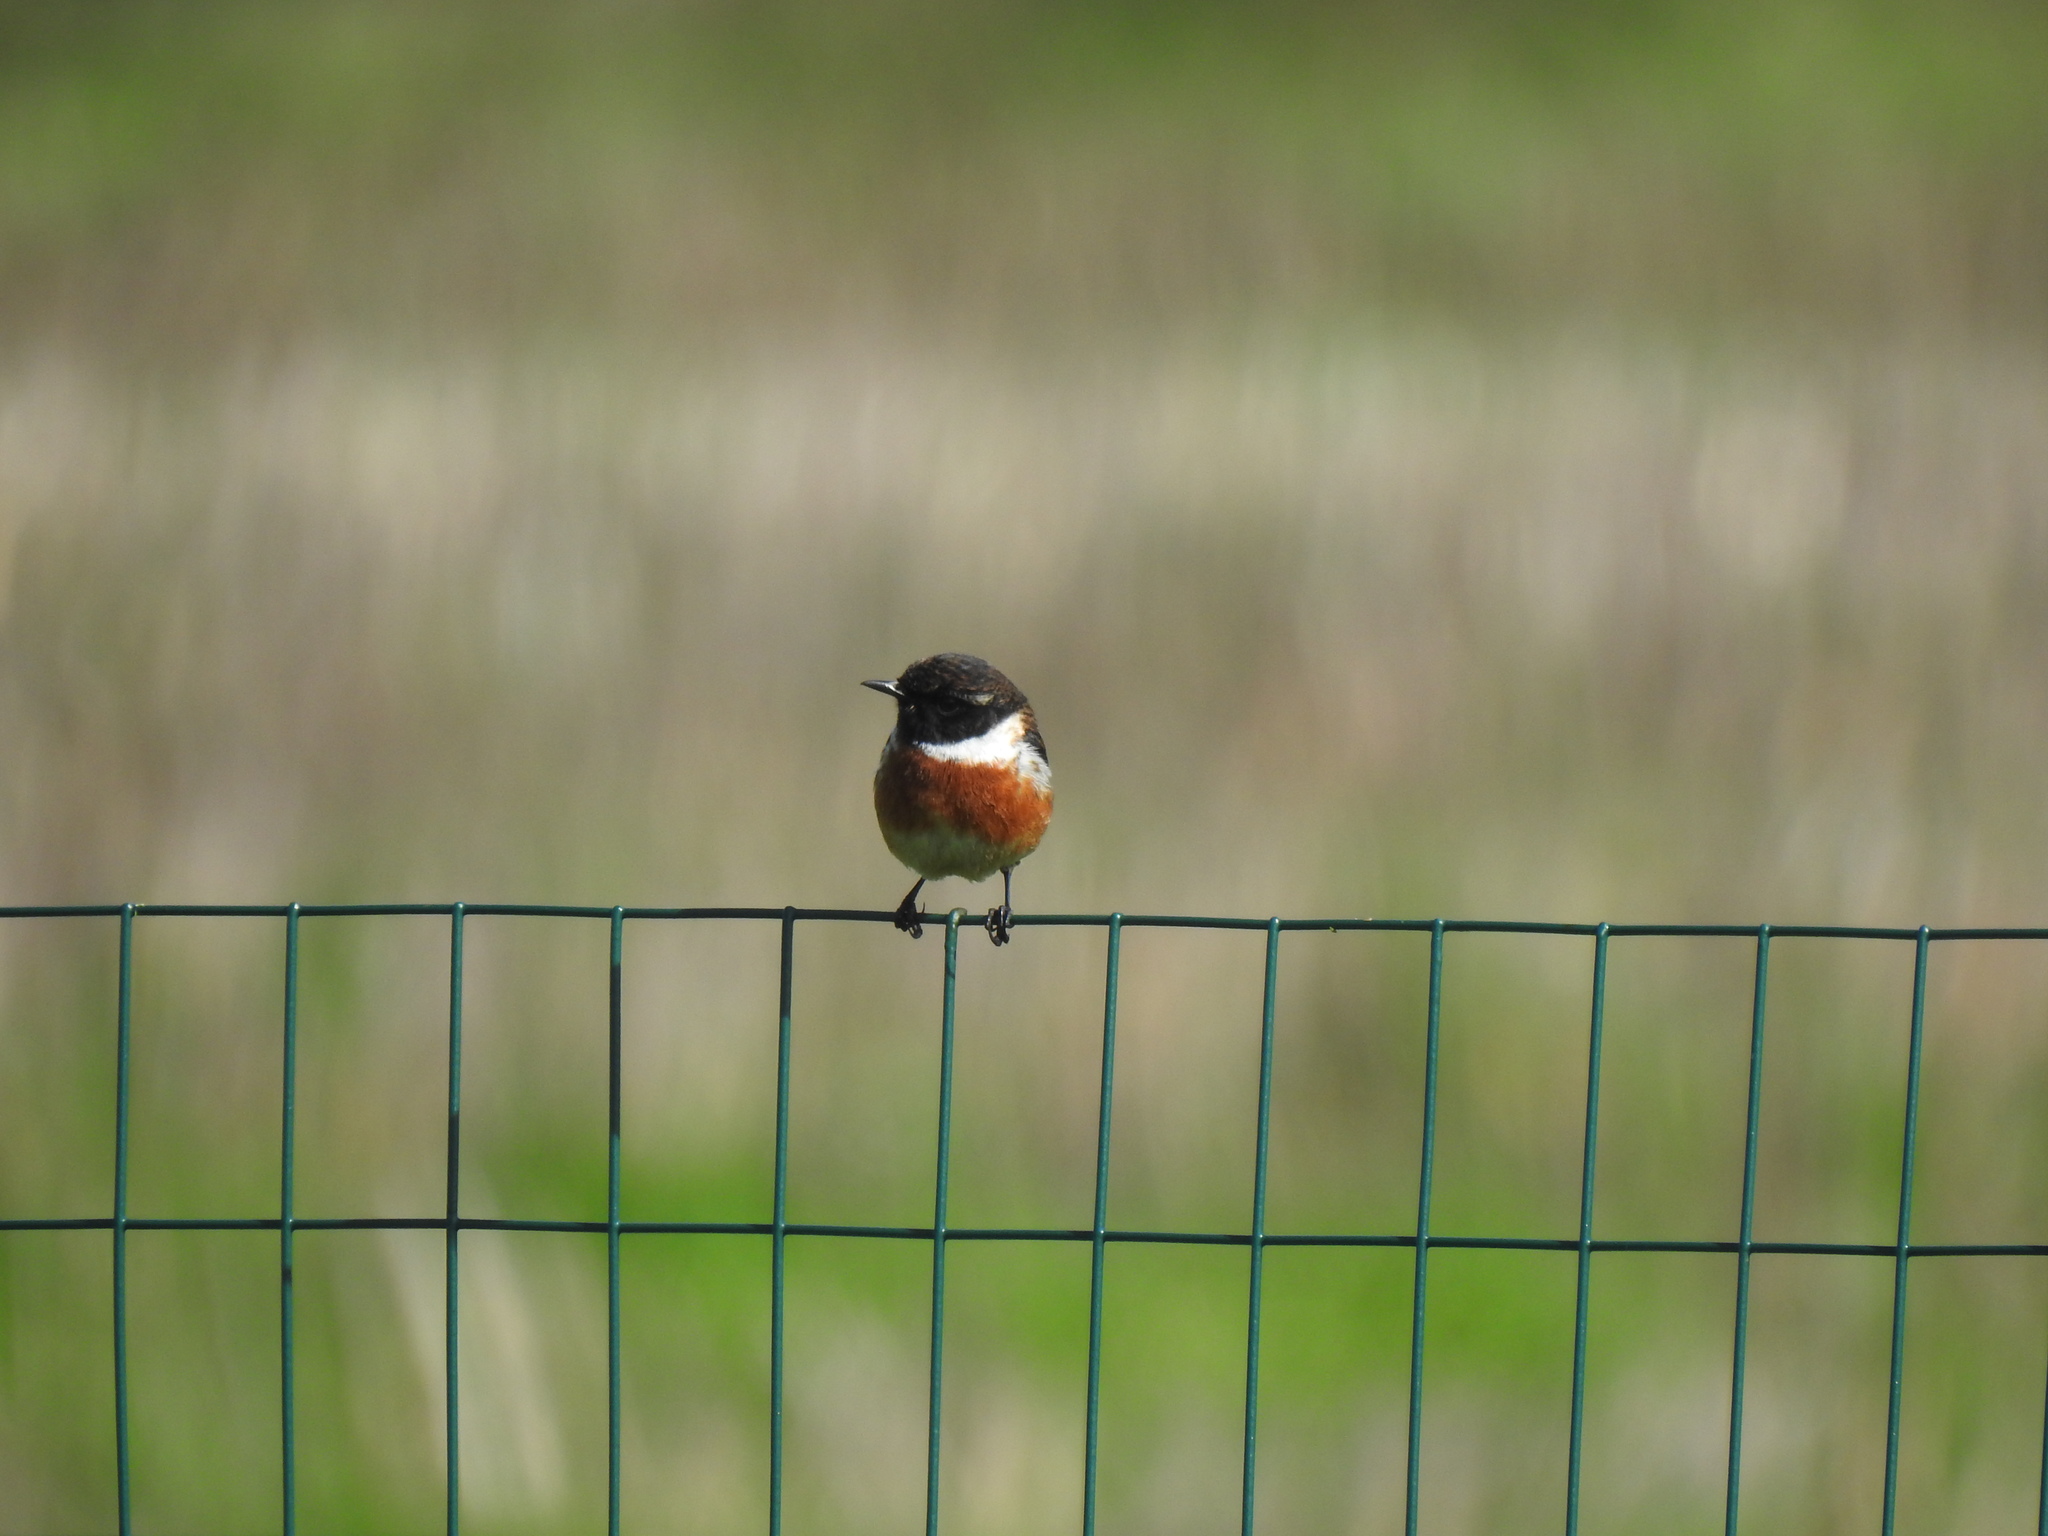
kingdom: Animalia
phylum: Chordata
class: Aves
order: Passeriformes
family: Muscicapidae
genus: Saxicola
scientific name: Saxicola rubicola
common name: European stonechat
